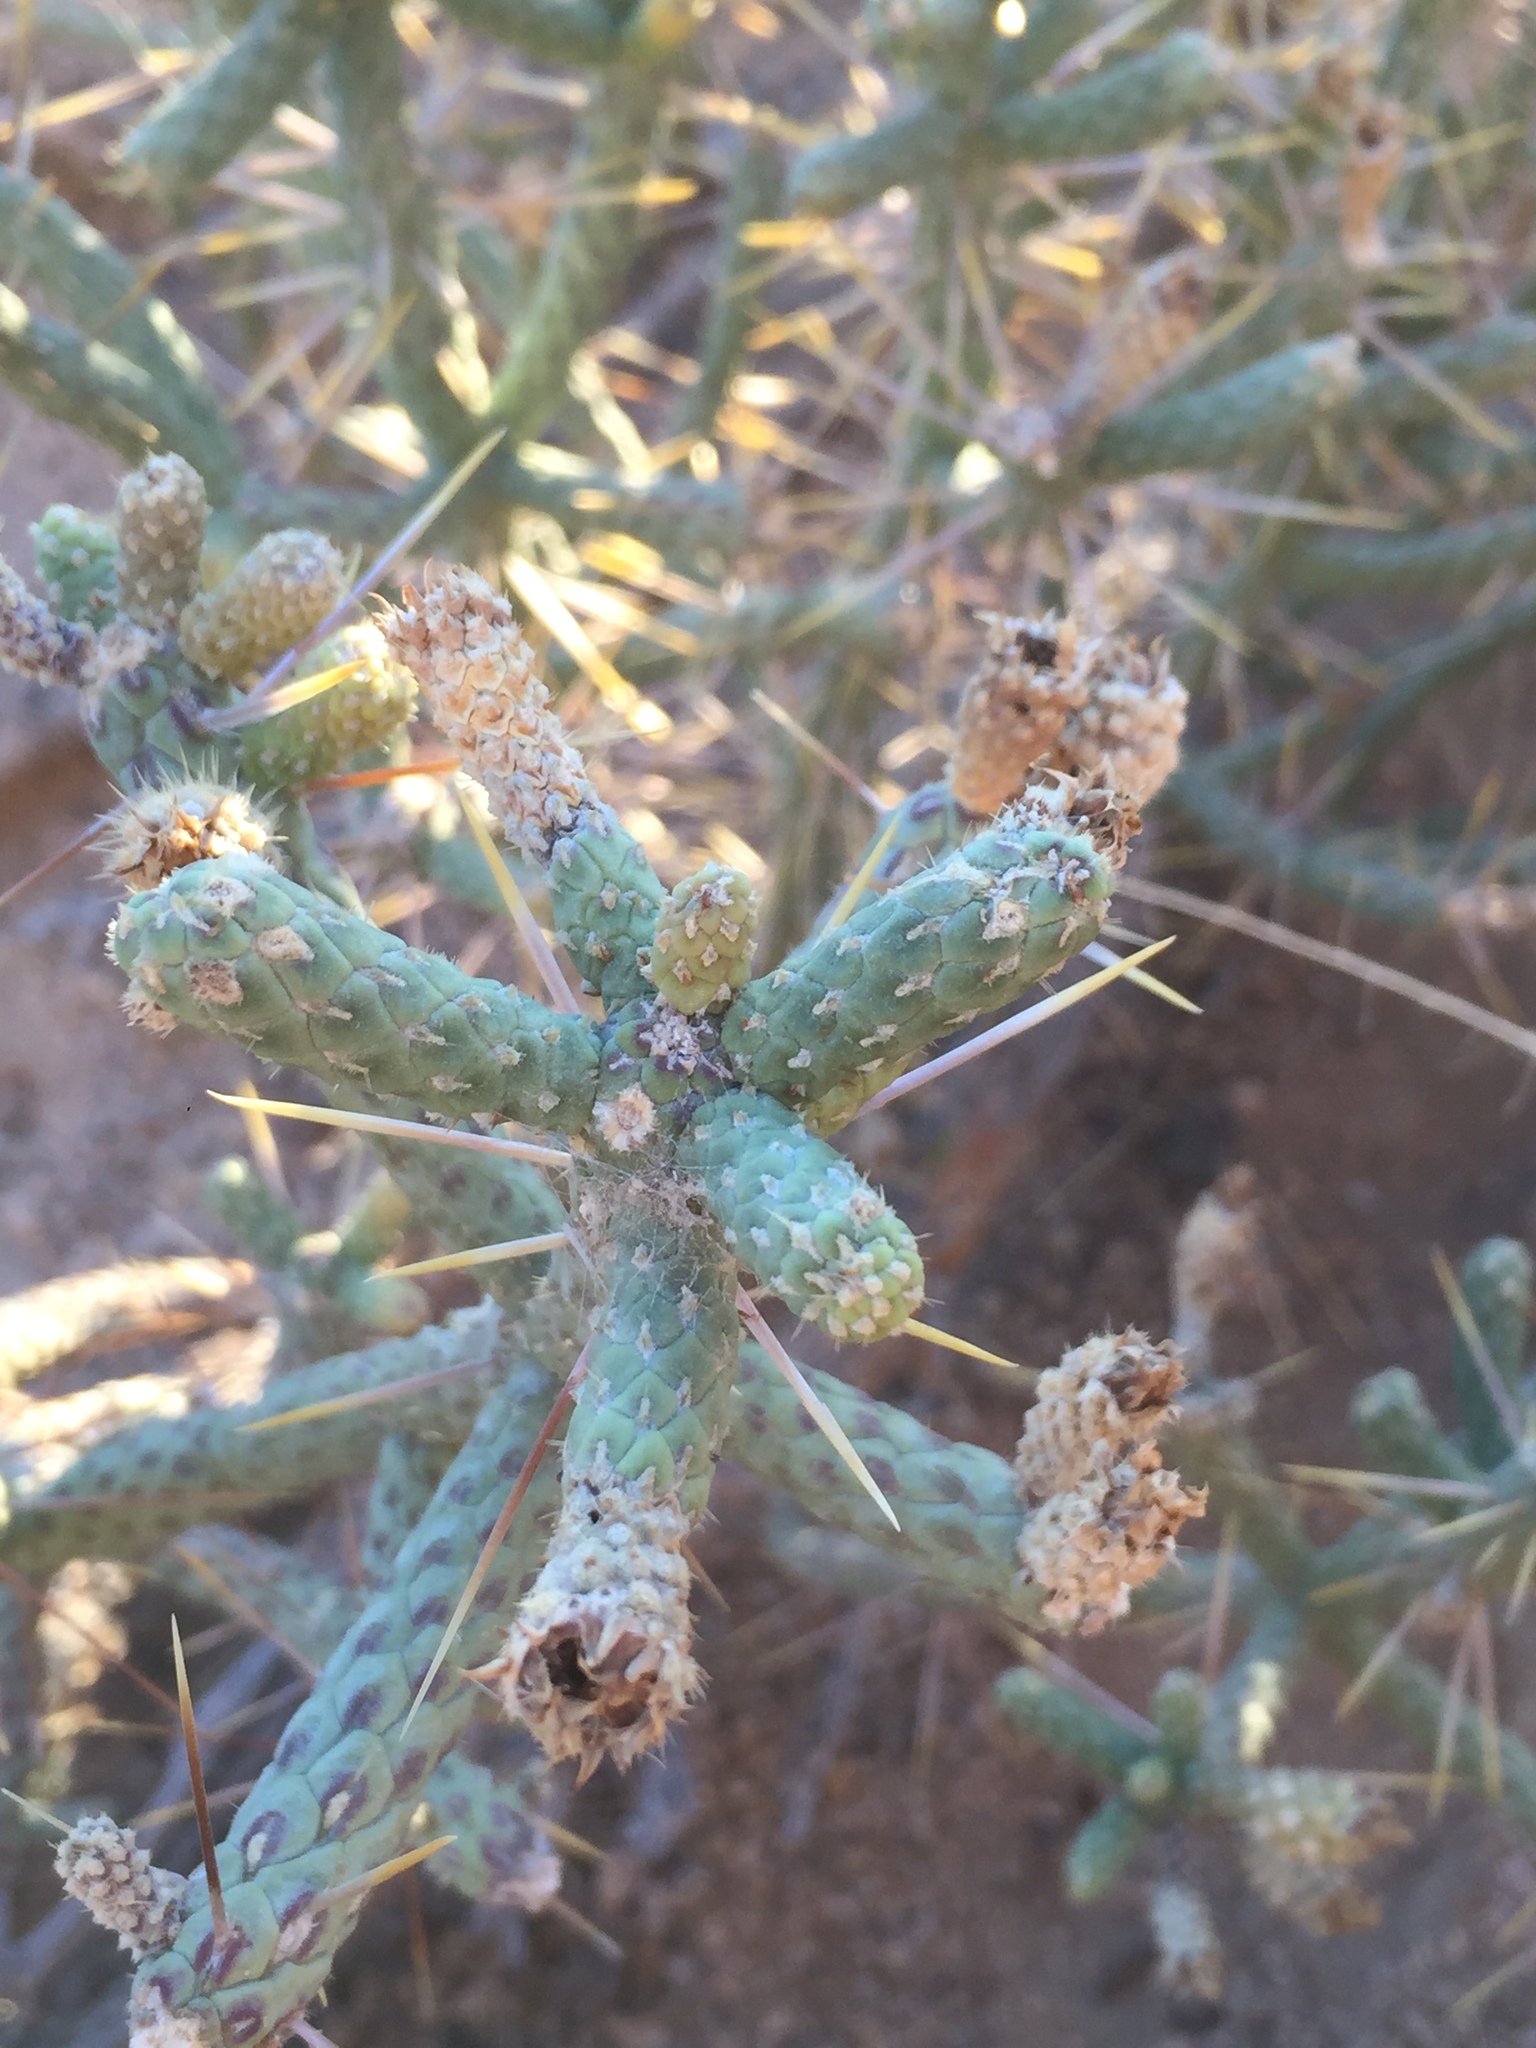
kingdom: Plantae
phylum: Tracheophyta
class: Magnoliopsida
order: Caryophyllales
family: Cactaceae
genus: Cylindropuntia
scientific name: Cylindropuntia ramosissima
